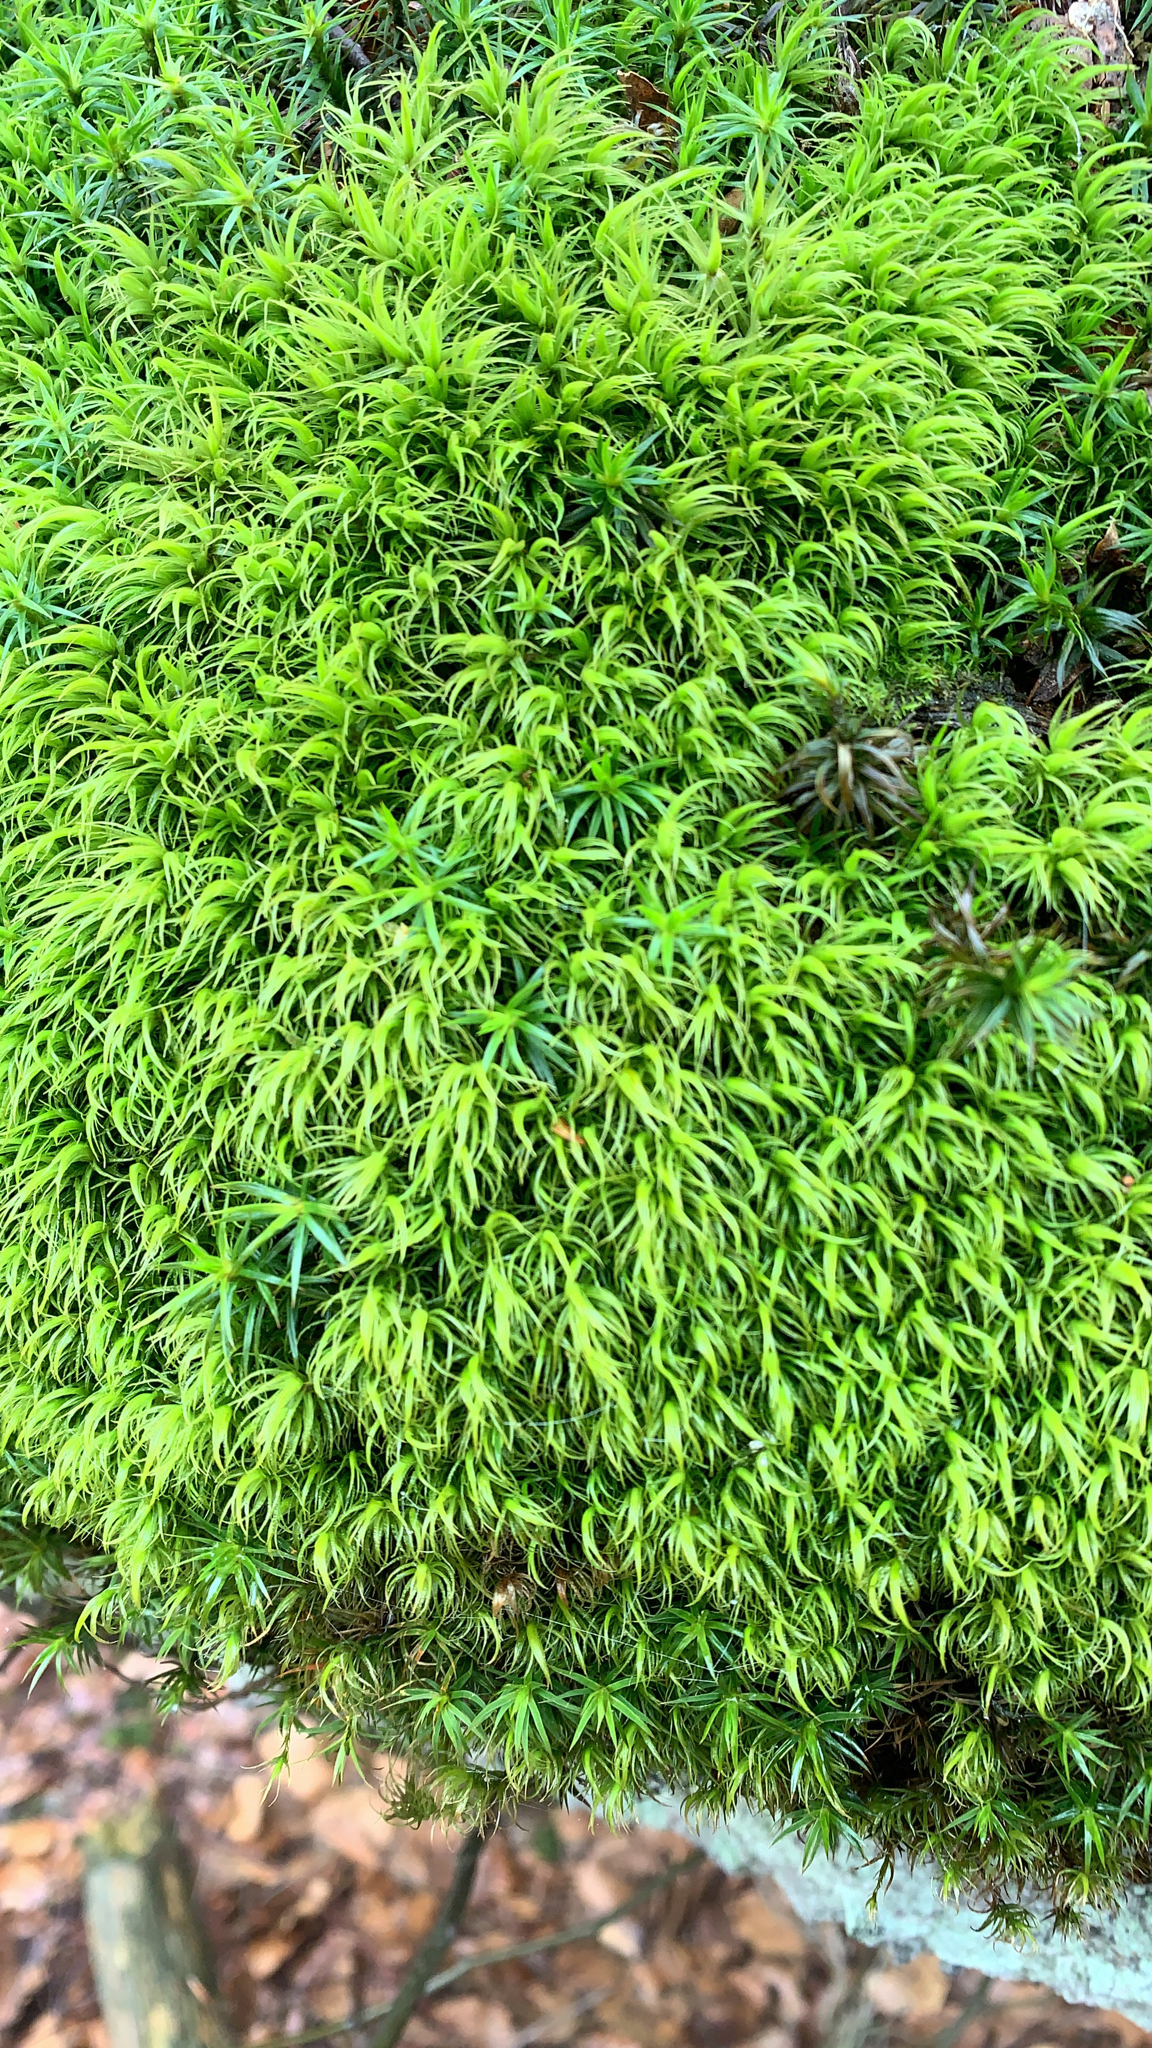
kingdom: Plantae
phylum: Bryophyta
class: Bryopsida
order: Dicranales
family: Dicranaceae
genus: Dicranum
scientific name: Dicranum scoparium
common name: Broom fork-moss
